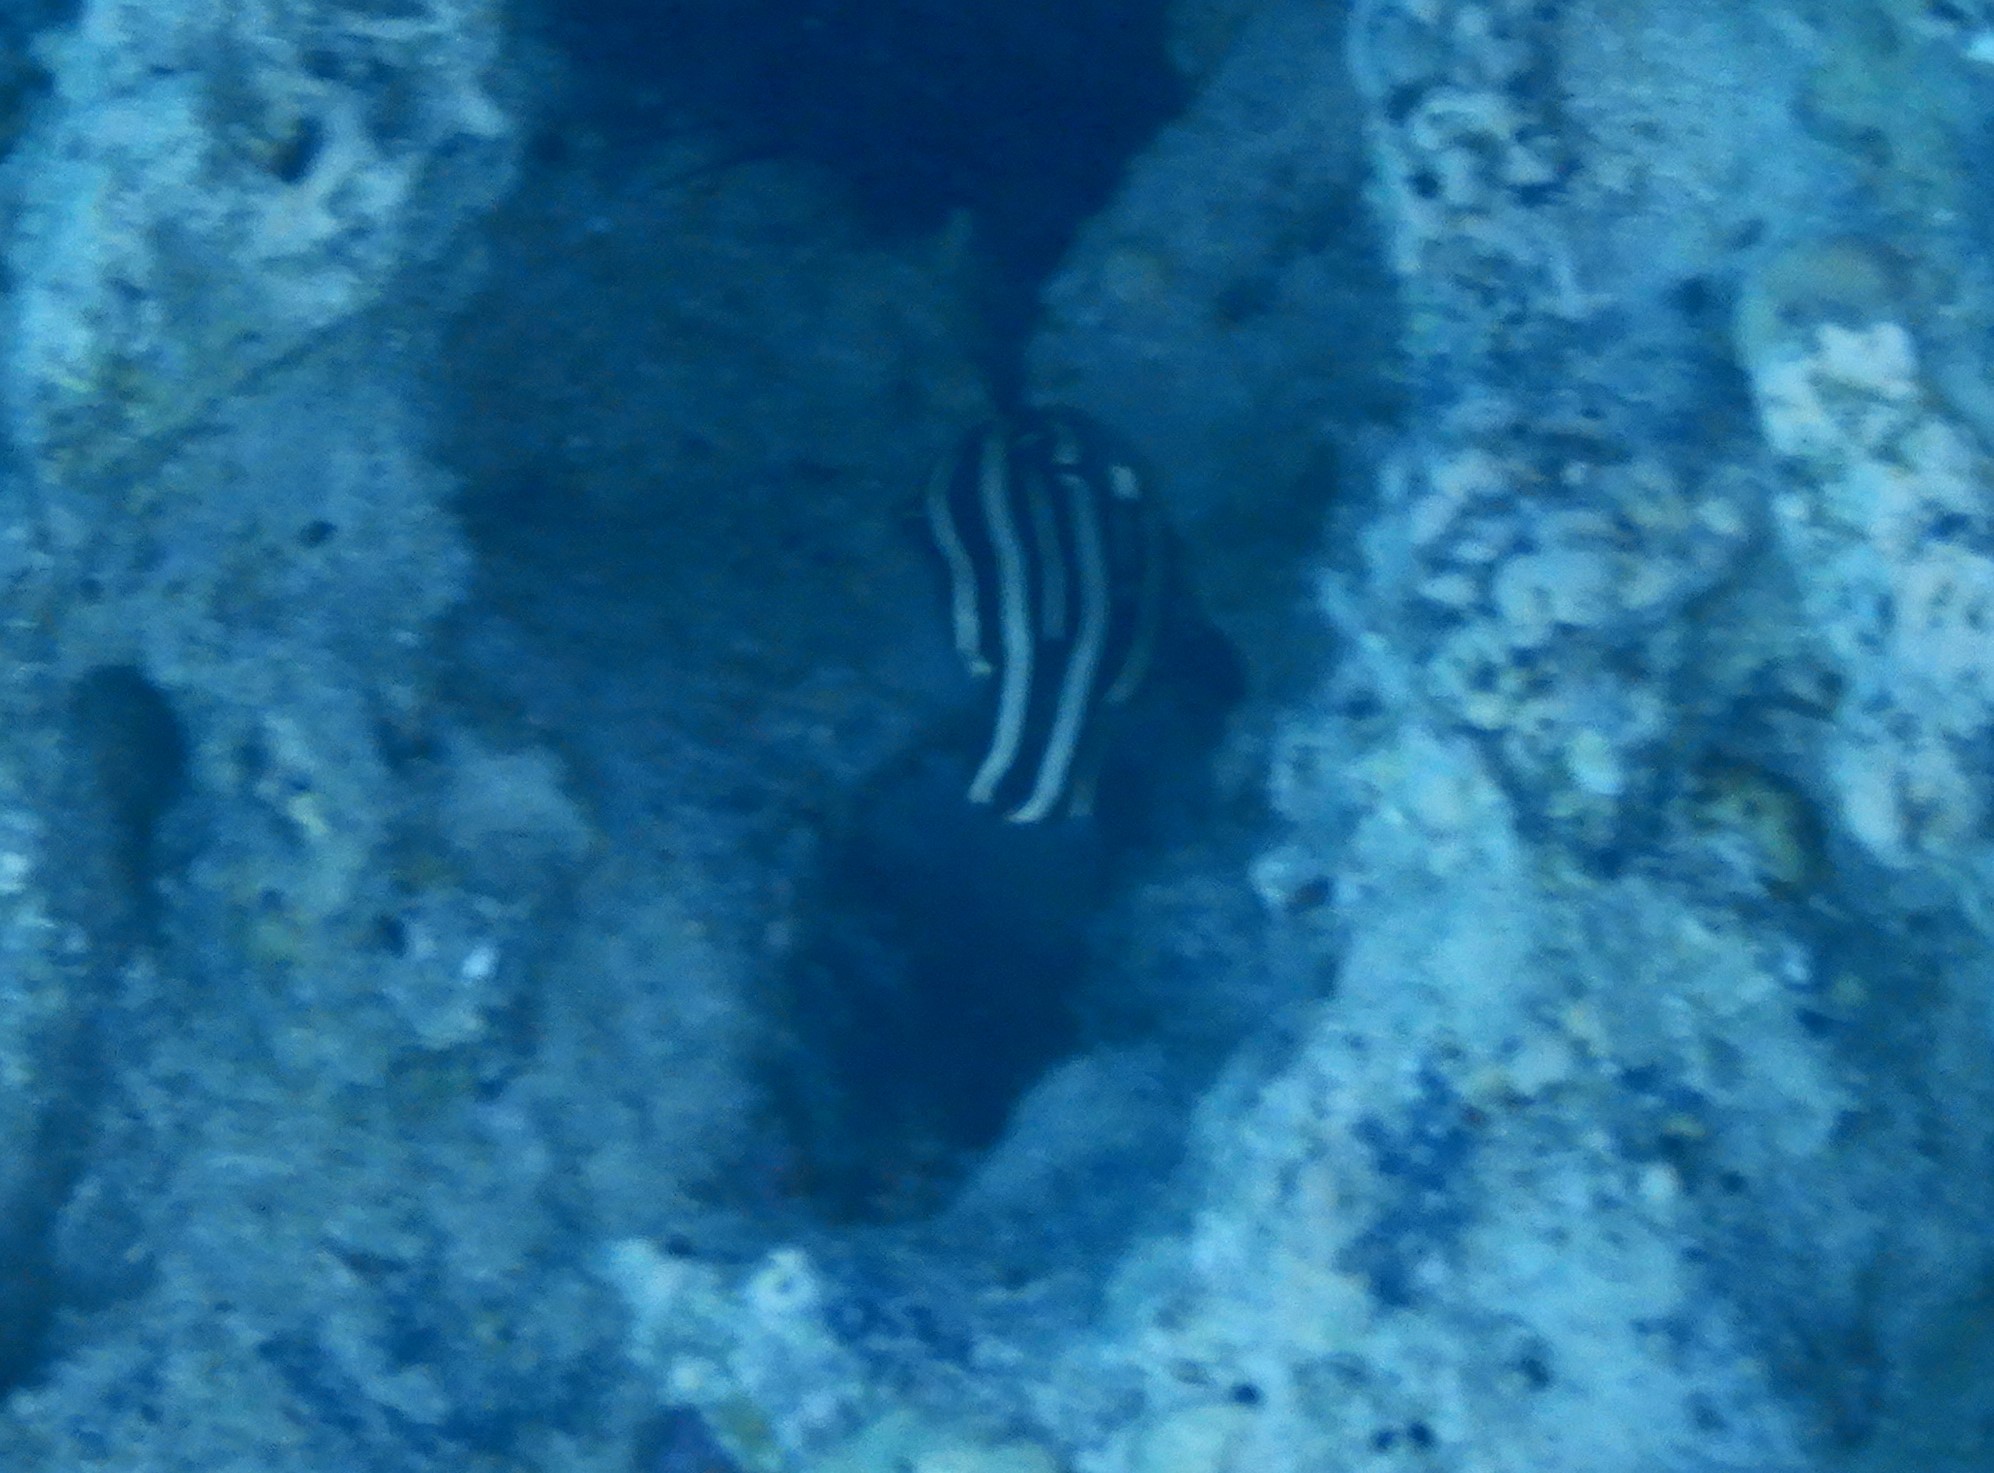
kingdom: Animalia
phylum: Chordata
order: Perciformes
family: Serranidae
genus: Grammistes
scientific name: Grammistes sexlineatus
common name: Sixline soapfish
